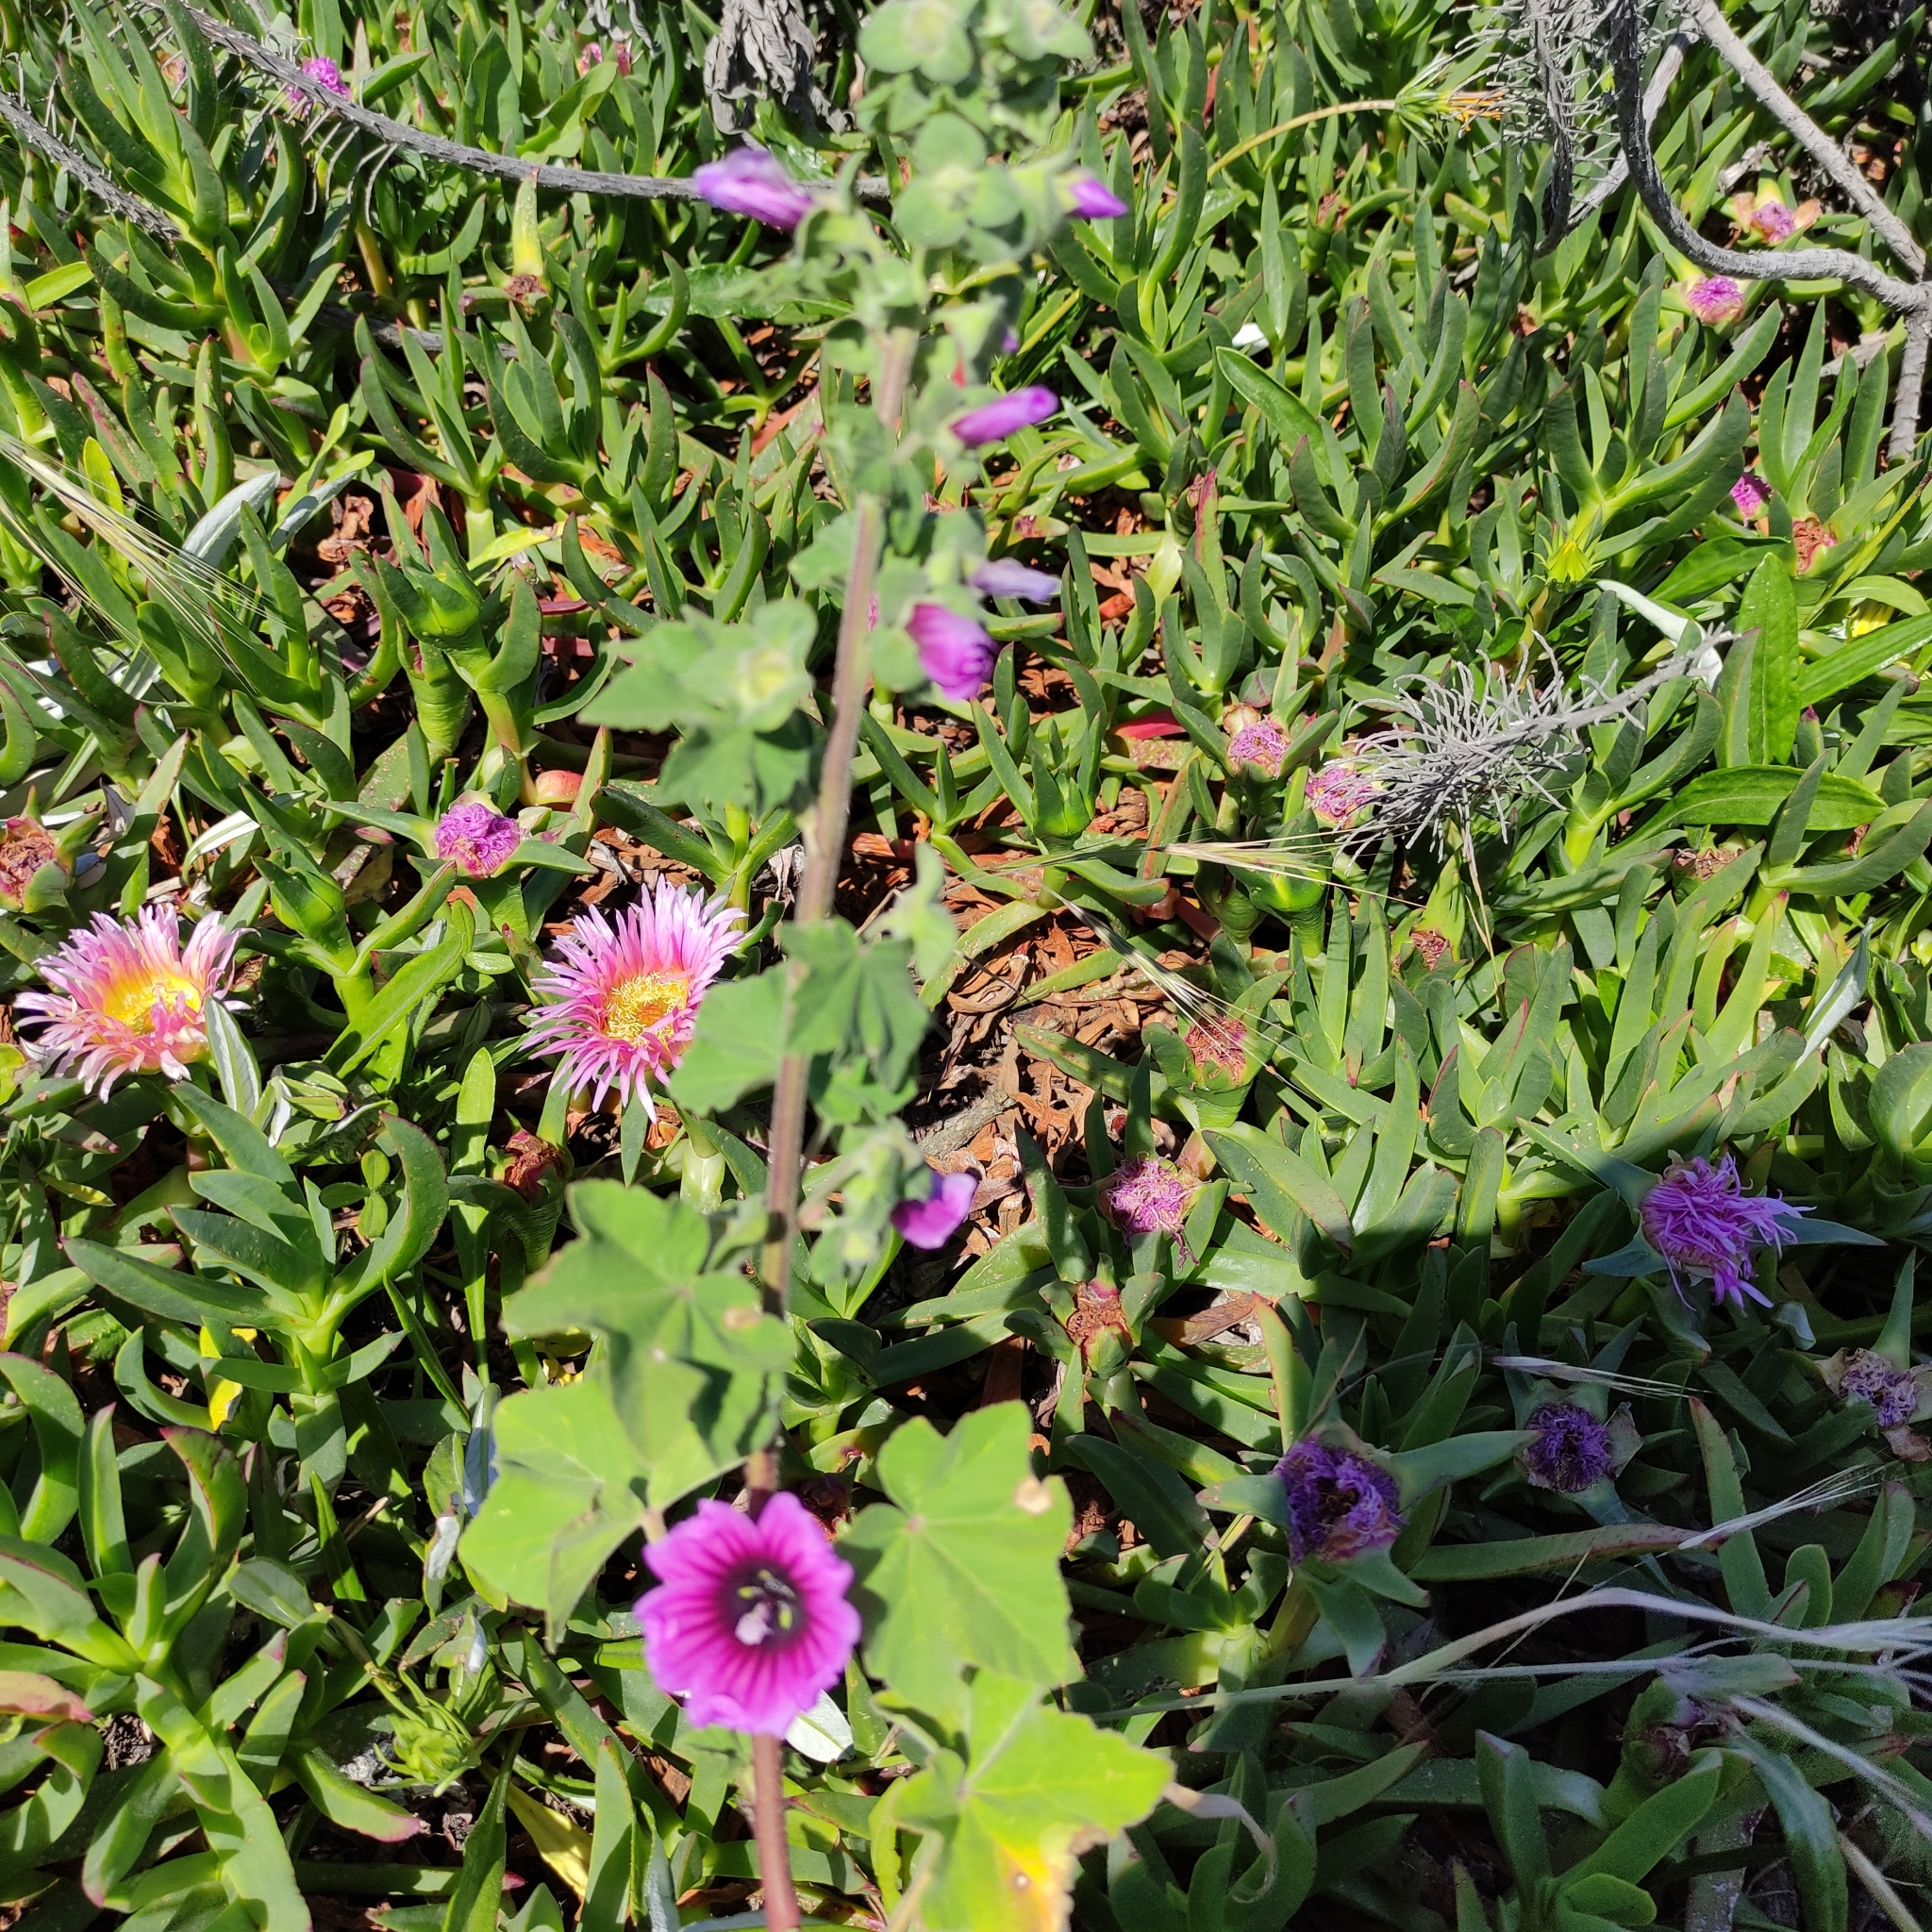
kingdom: Plantae
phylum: Tracheophyta
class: Magnoliopsida
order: Malvales
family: Malvaceae
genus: Malva
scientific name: Malva arborea
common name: Tree mallow
